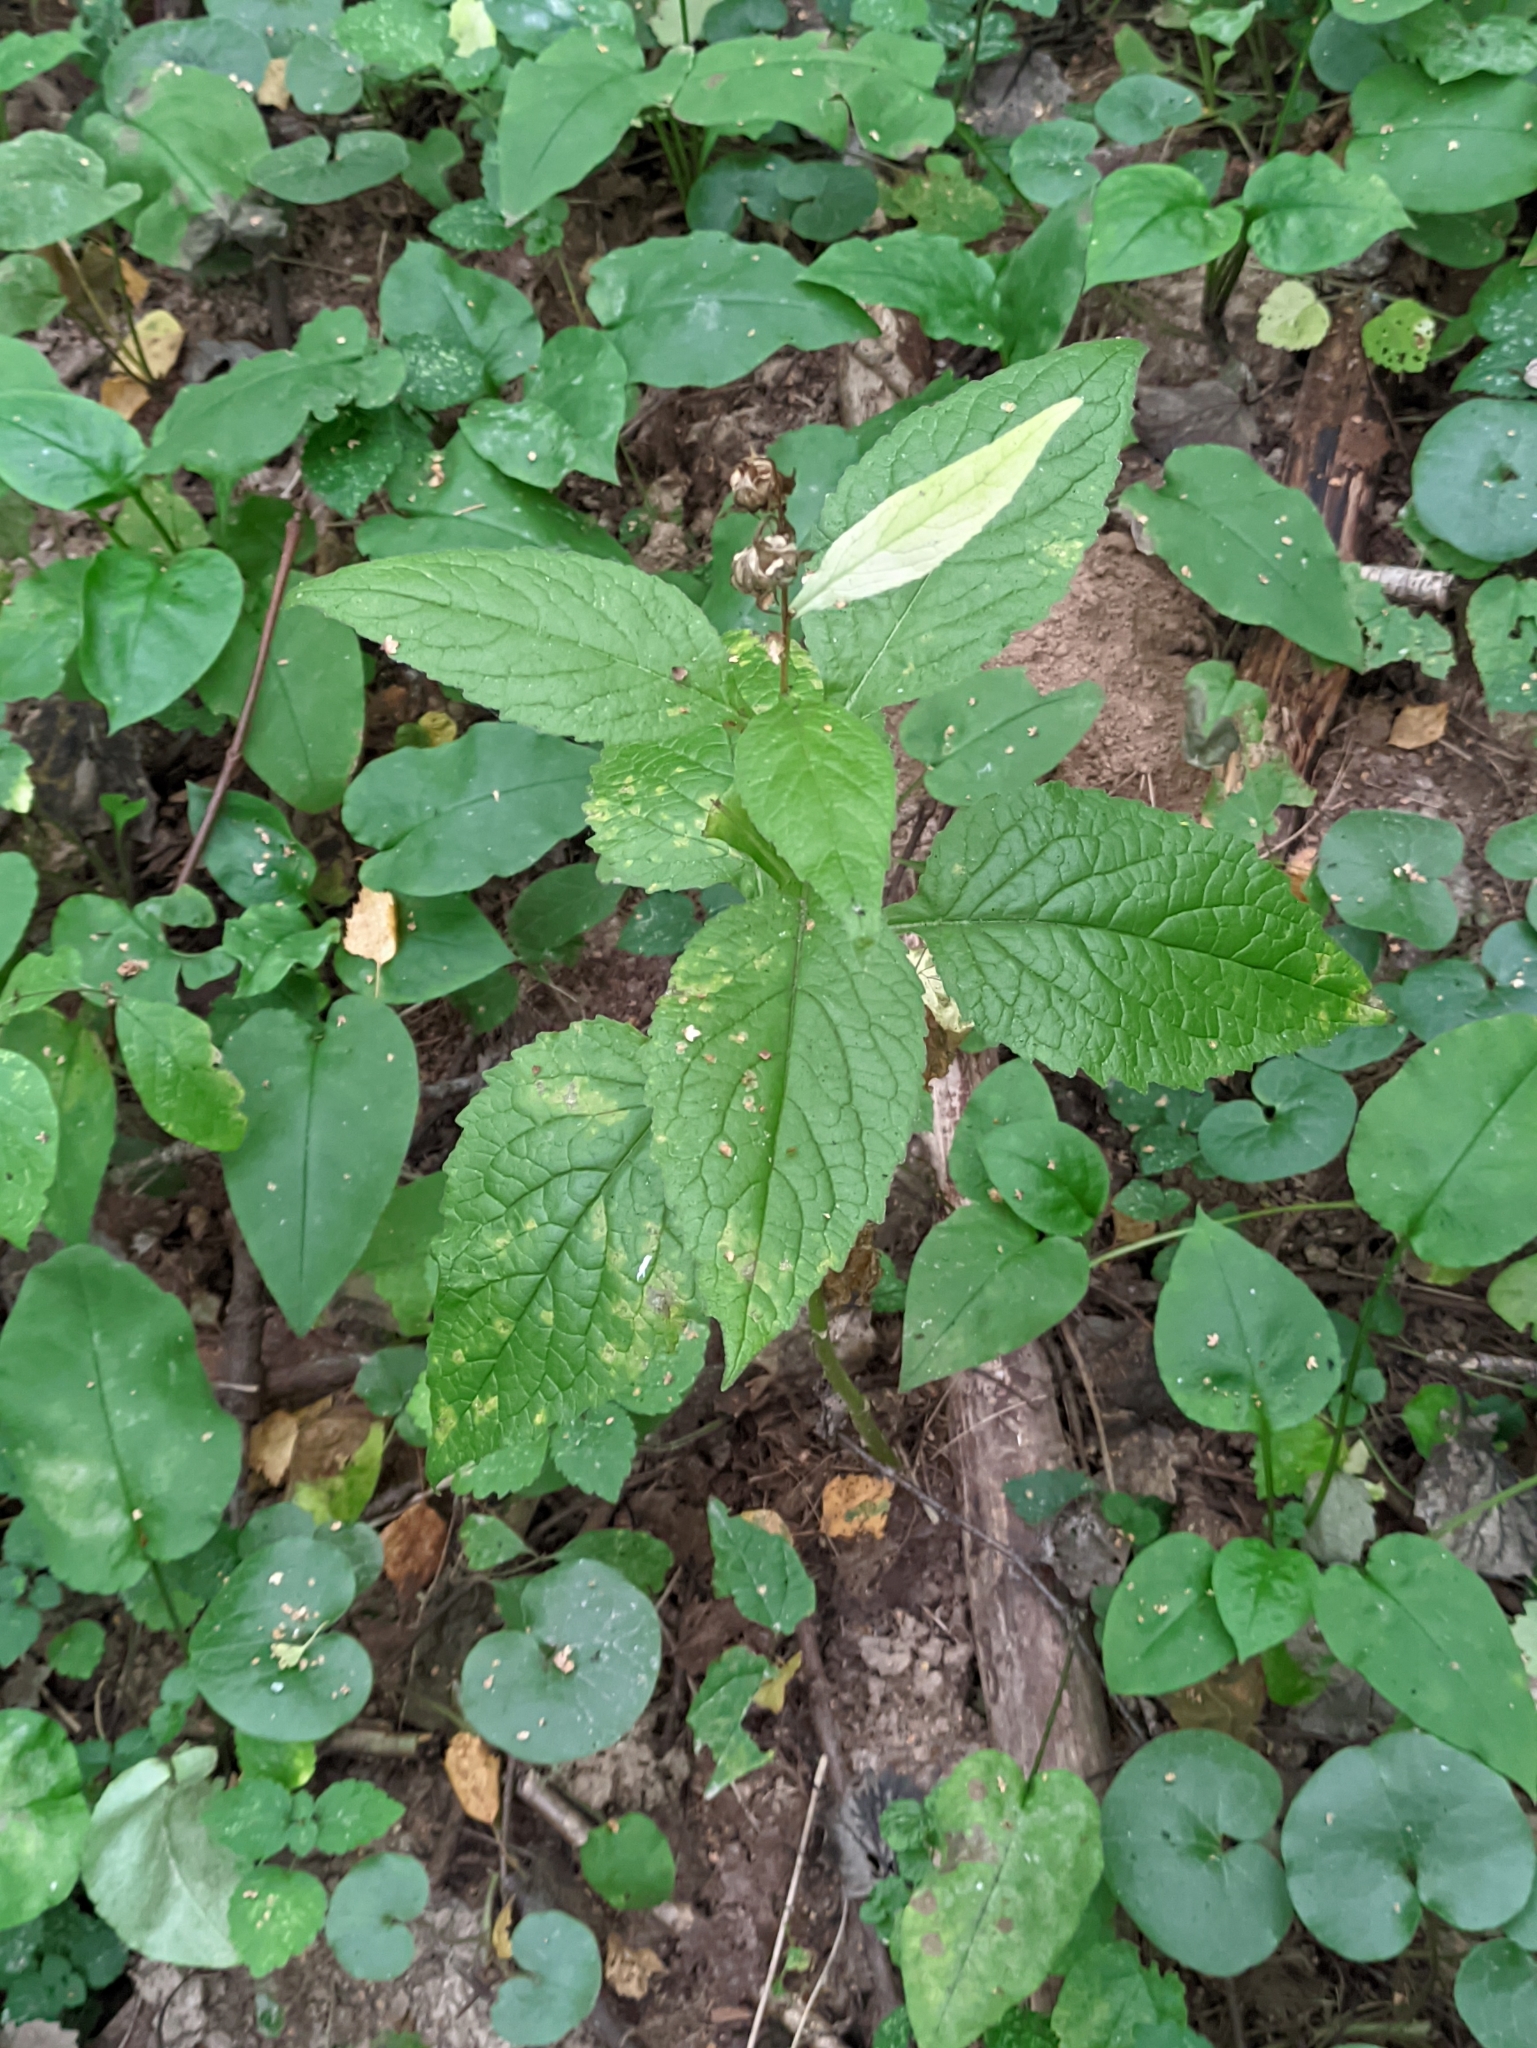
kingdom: Plantae
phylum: Tracheophyta
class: Magnoliopsida
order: Asterales
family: Campanulaceae
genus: Campanula
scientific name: Campanula latifolia
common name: Giant bellflower
